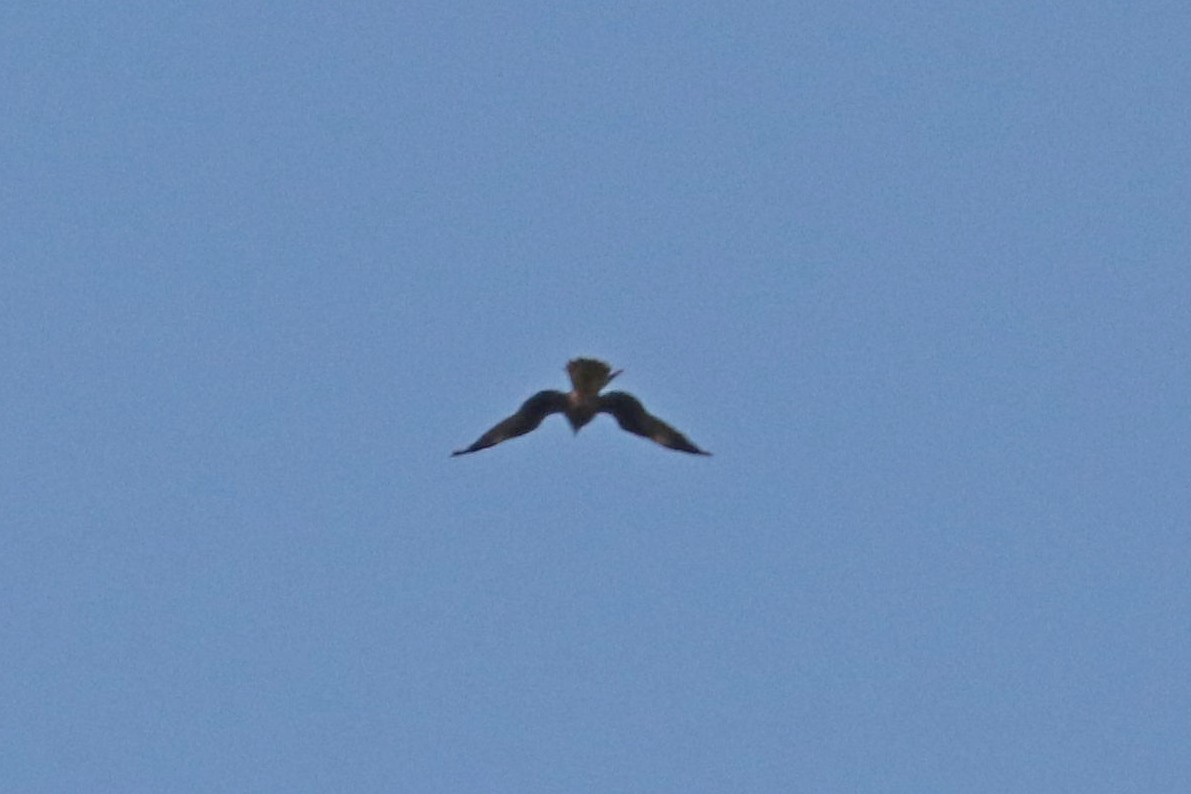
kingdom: Animalia
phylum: Chordata
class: Aves
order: Accipitriformes
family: Accipitridae
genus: Milvus
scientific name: Milvus migrans
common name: Black kite
